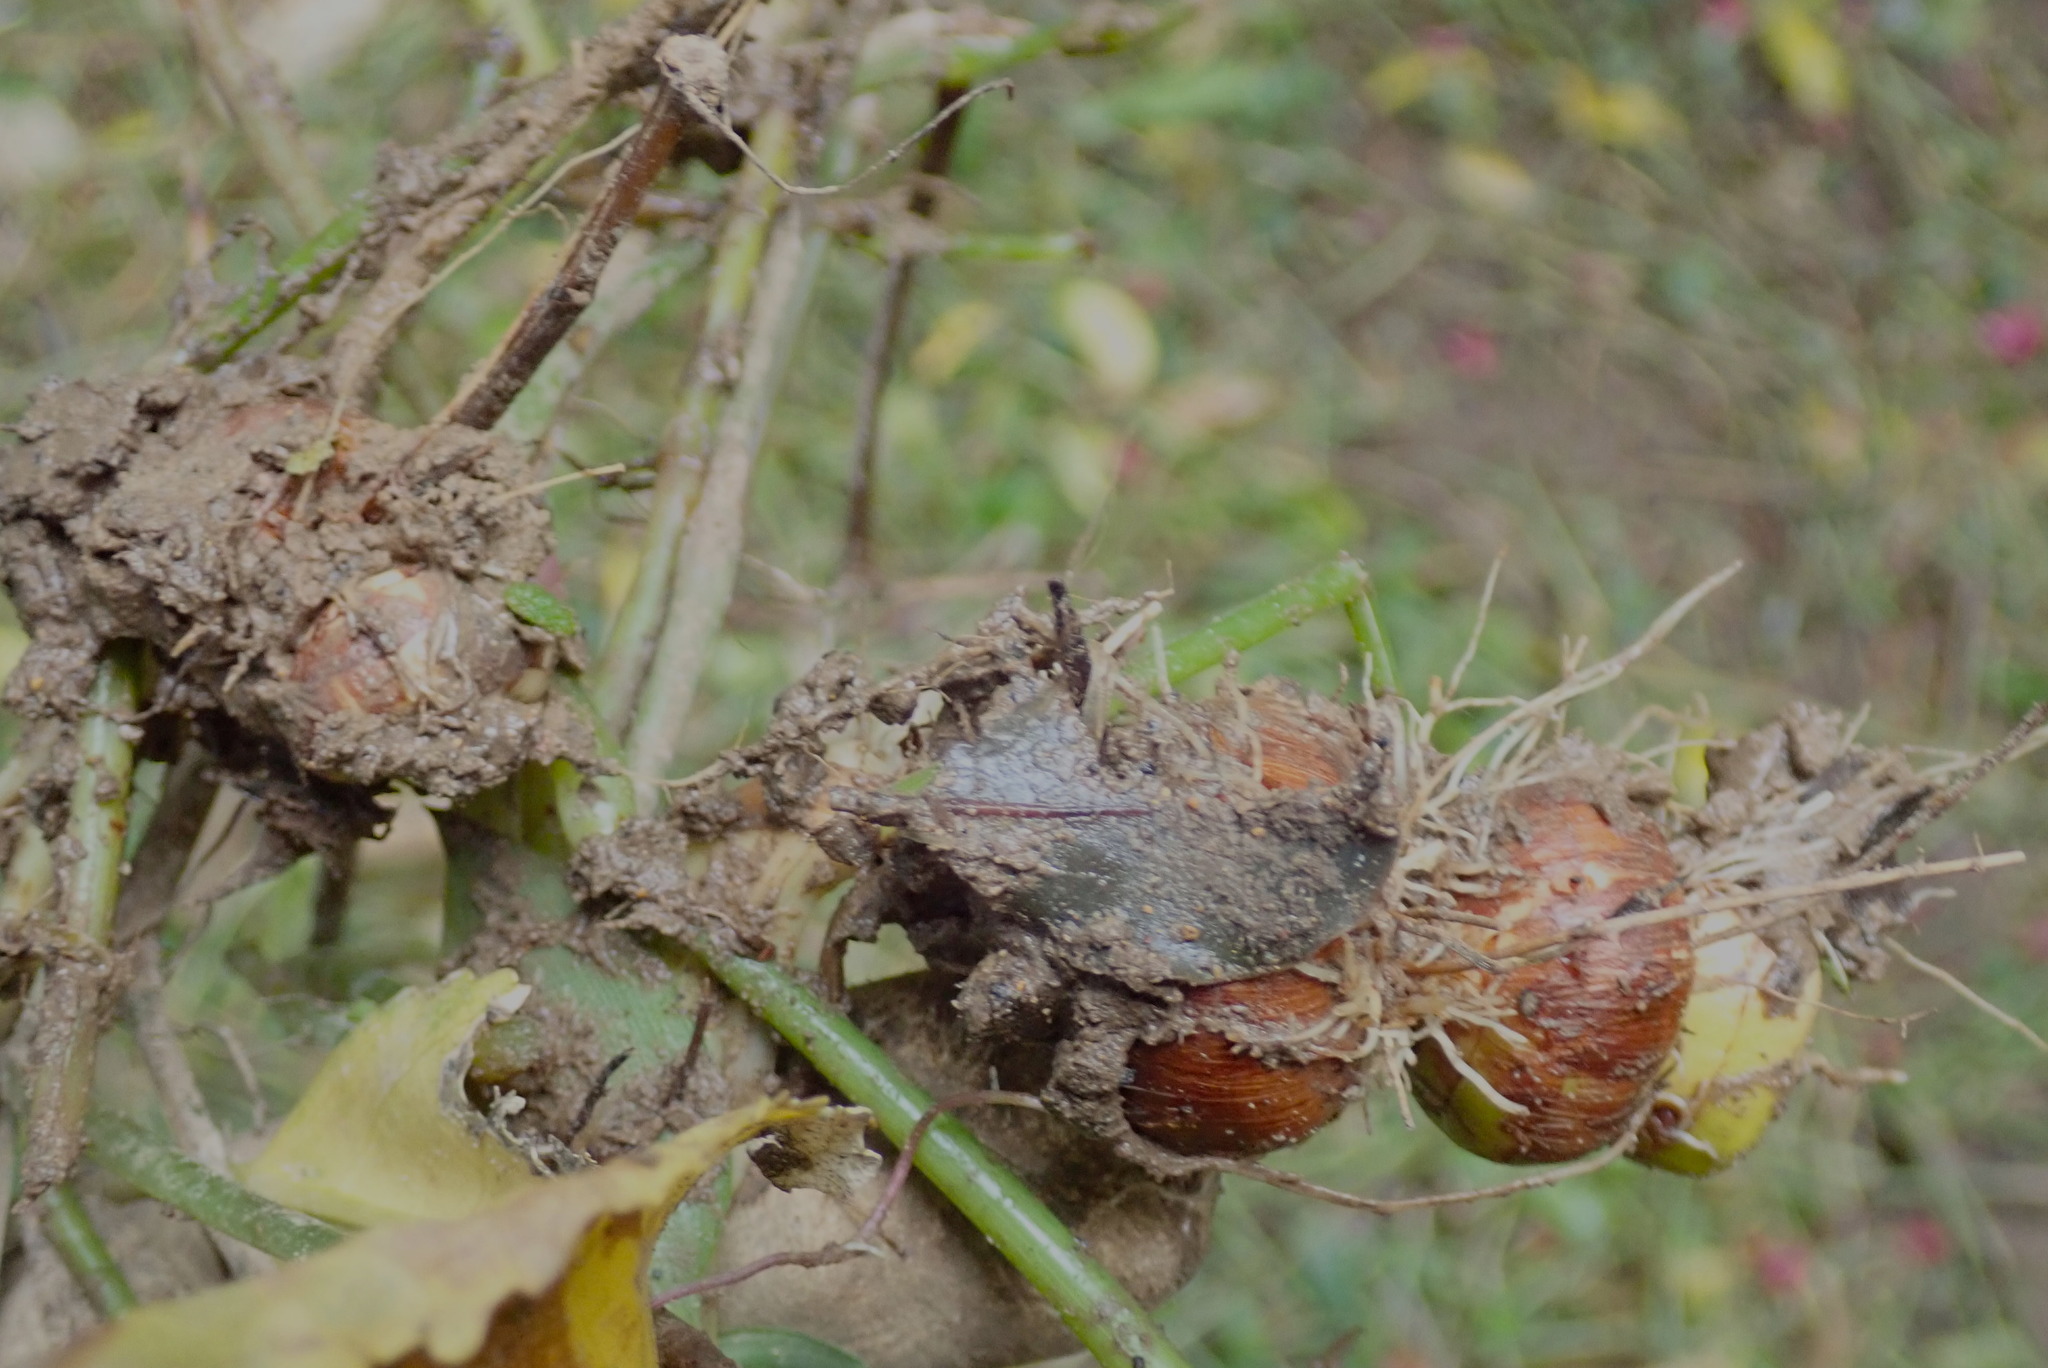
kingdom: Plantae
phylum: Tracheophyta
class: Liliopsida
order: Asparagales
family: Iridaceae
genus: Crocosmia
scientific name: Crocosmia crocosmiiflora
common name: Montbretia
